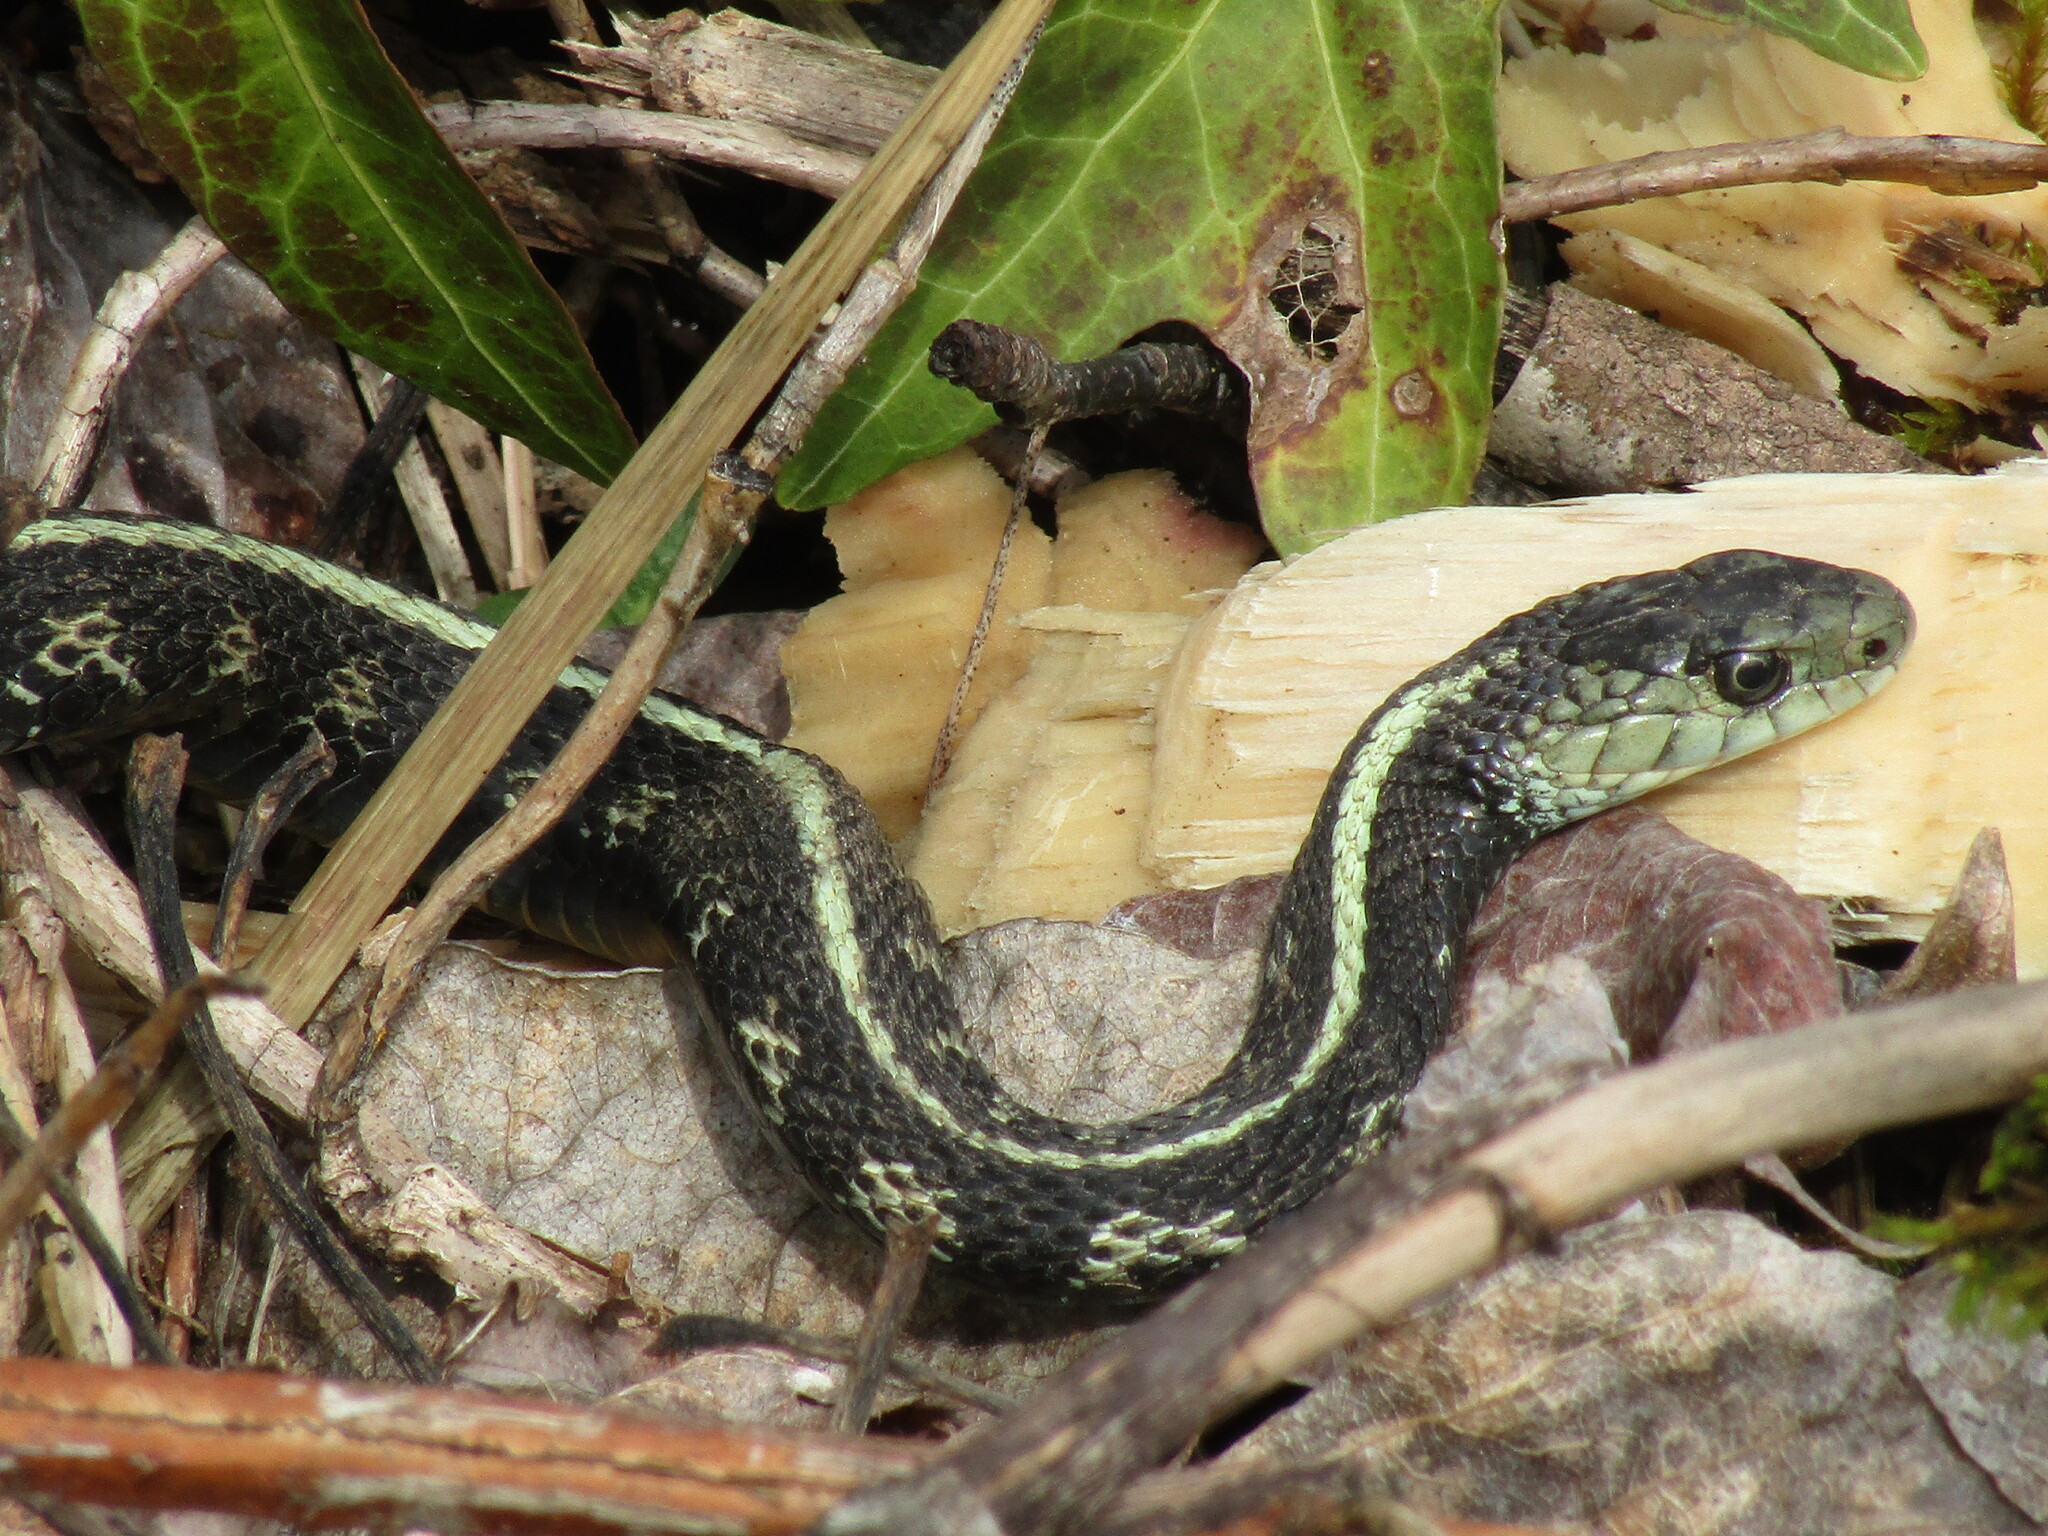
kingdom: Animalia
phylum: Chordata
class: Squamata
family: Colubridae
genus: Thamnophis
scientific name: Thamnophis sirtalis
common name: Common garter snake
